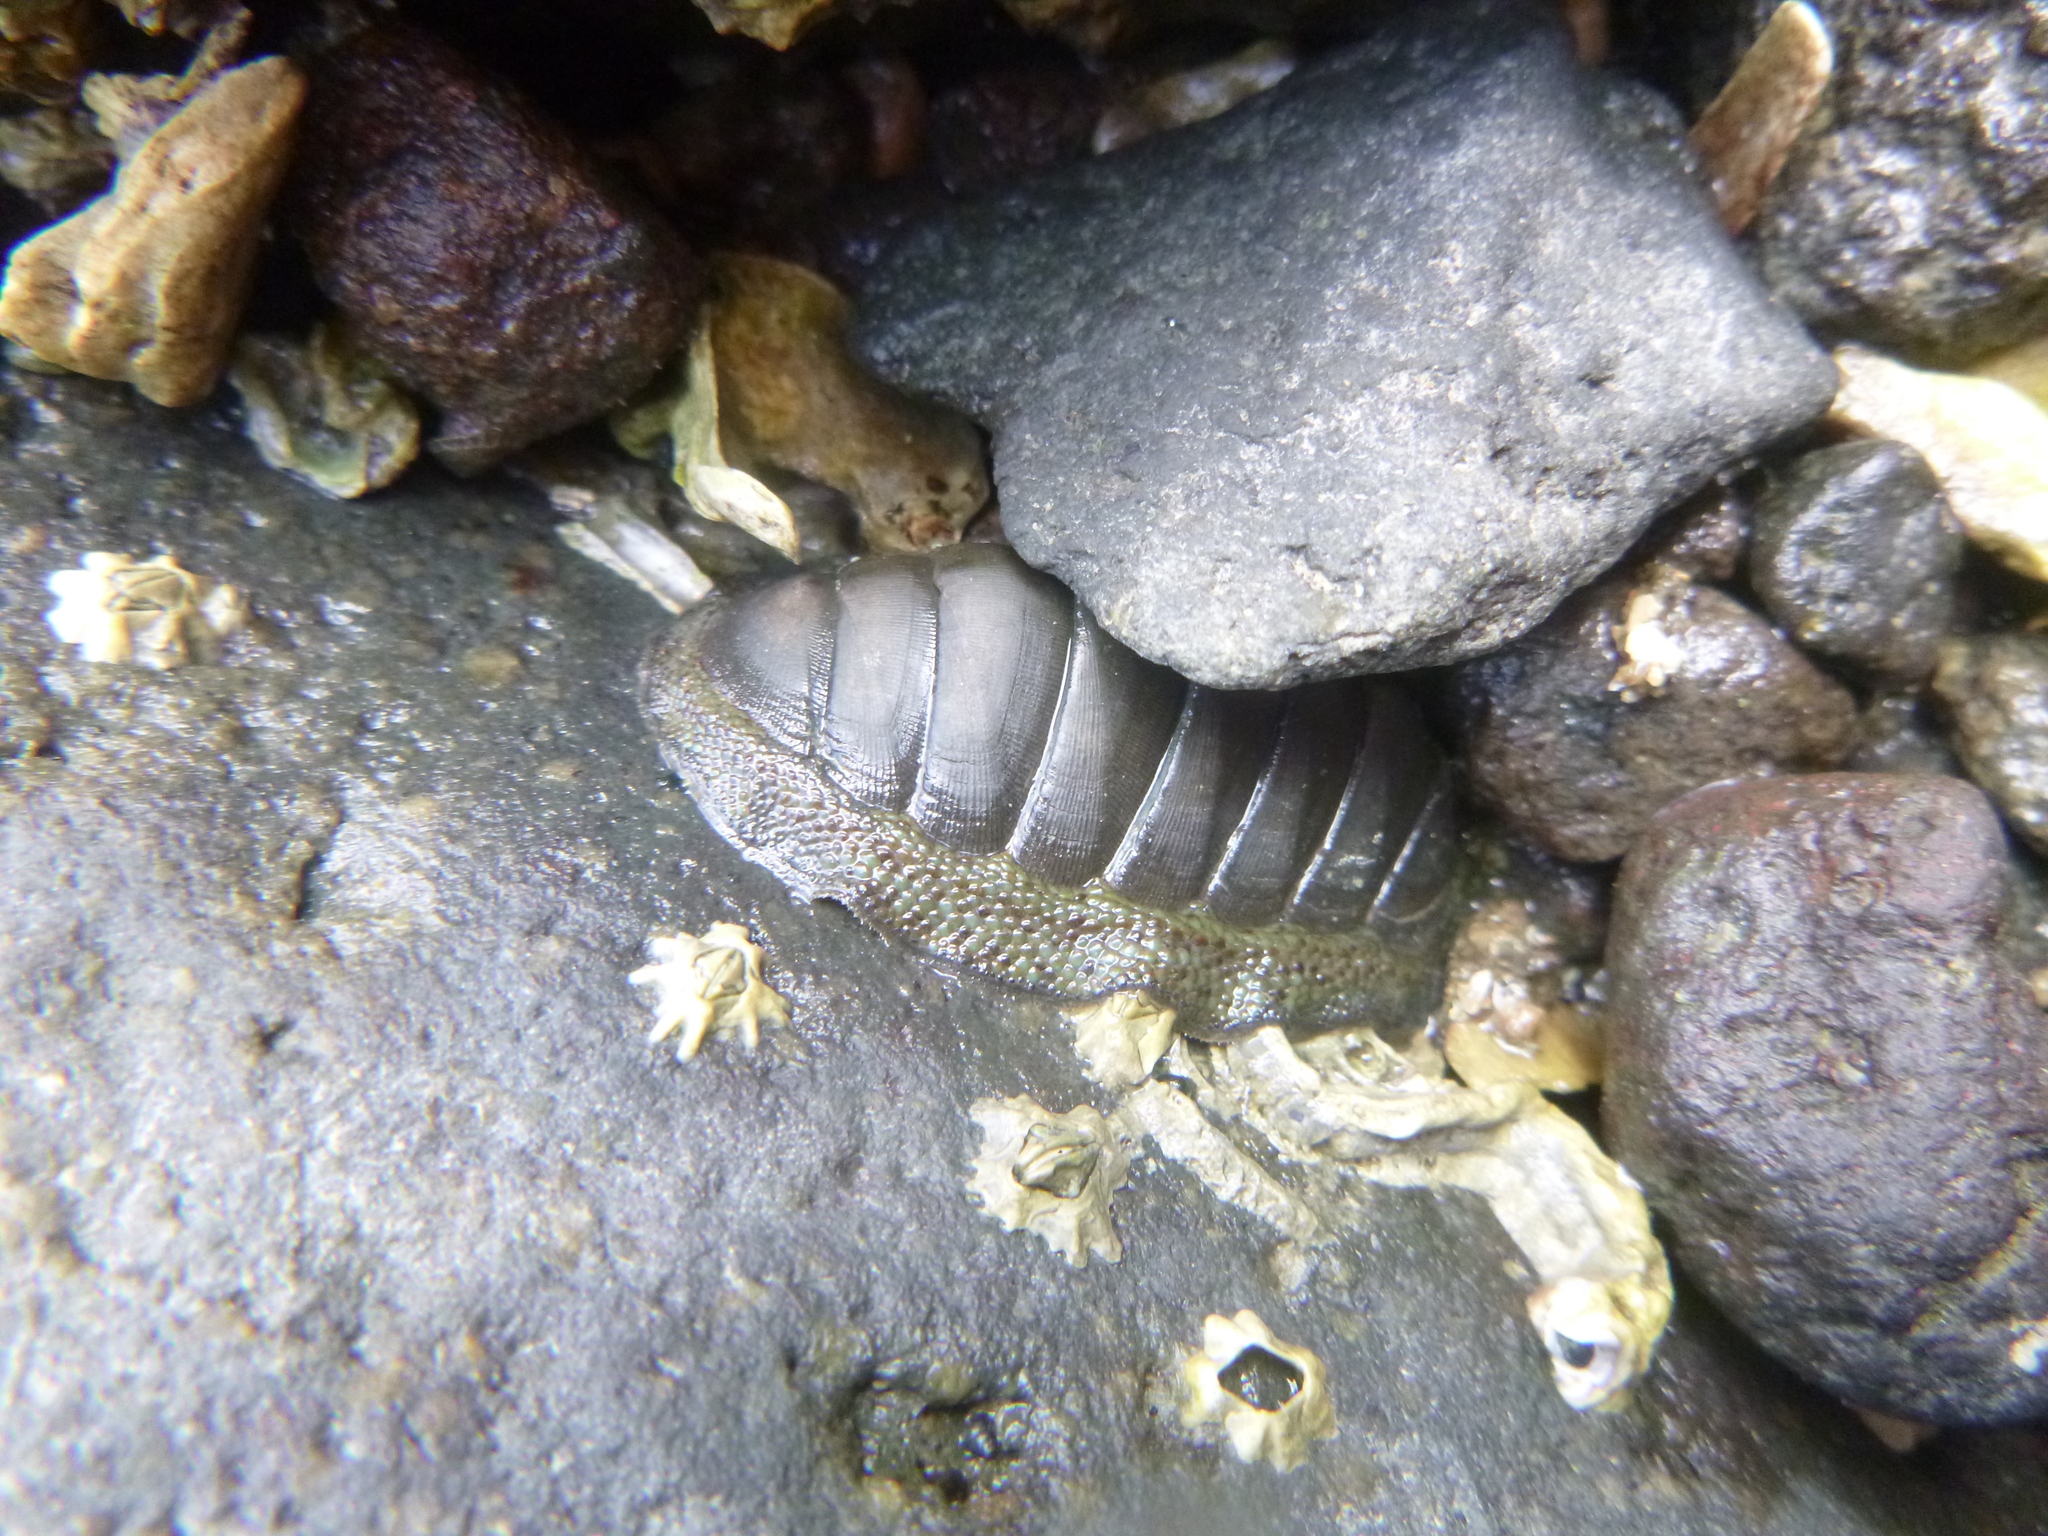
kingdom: Animalia
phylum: Mollusca
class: Polyplacophora
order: Chitonida
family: Chitonidae
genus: Chiton
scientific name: Chiton glaucus
